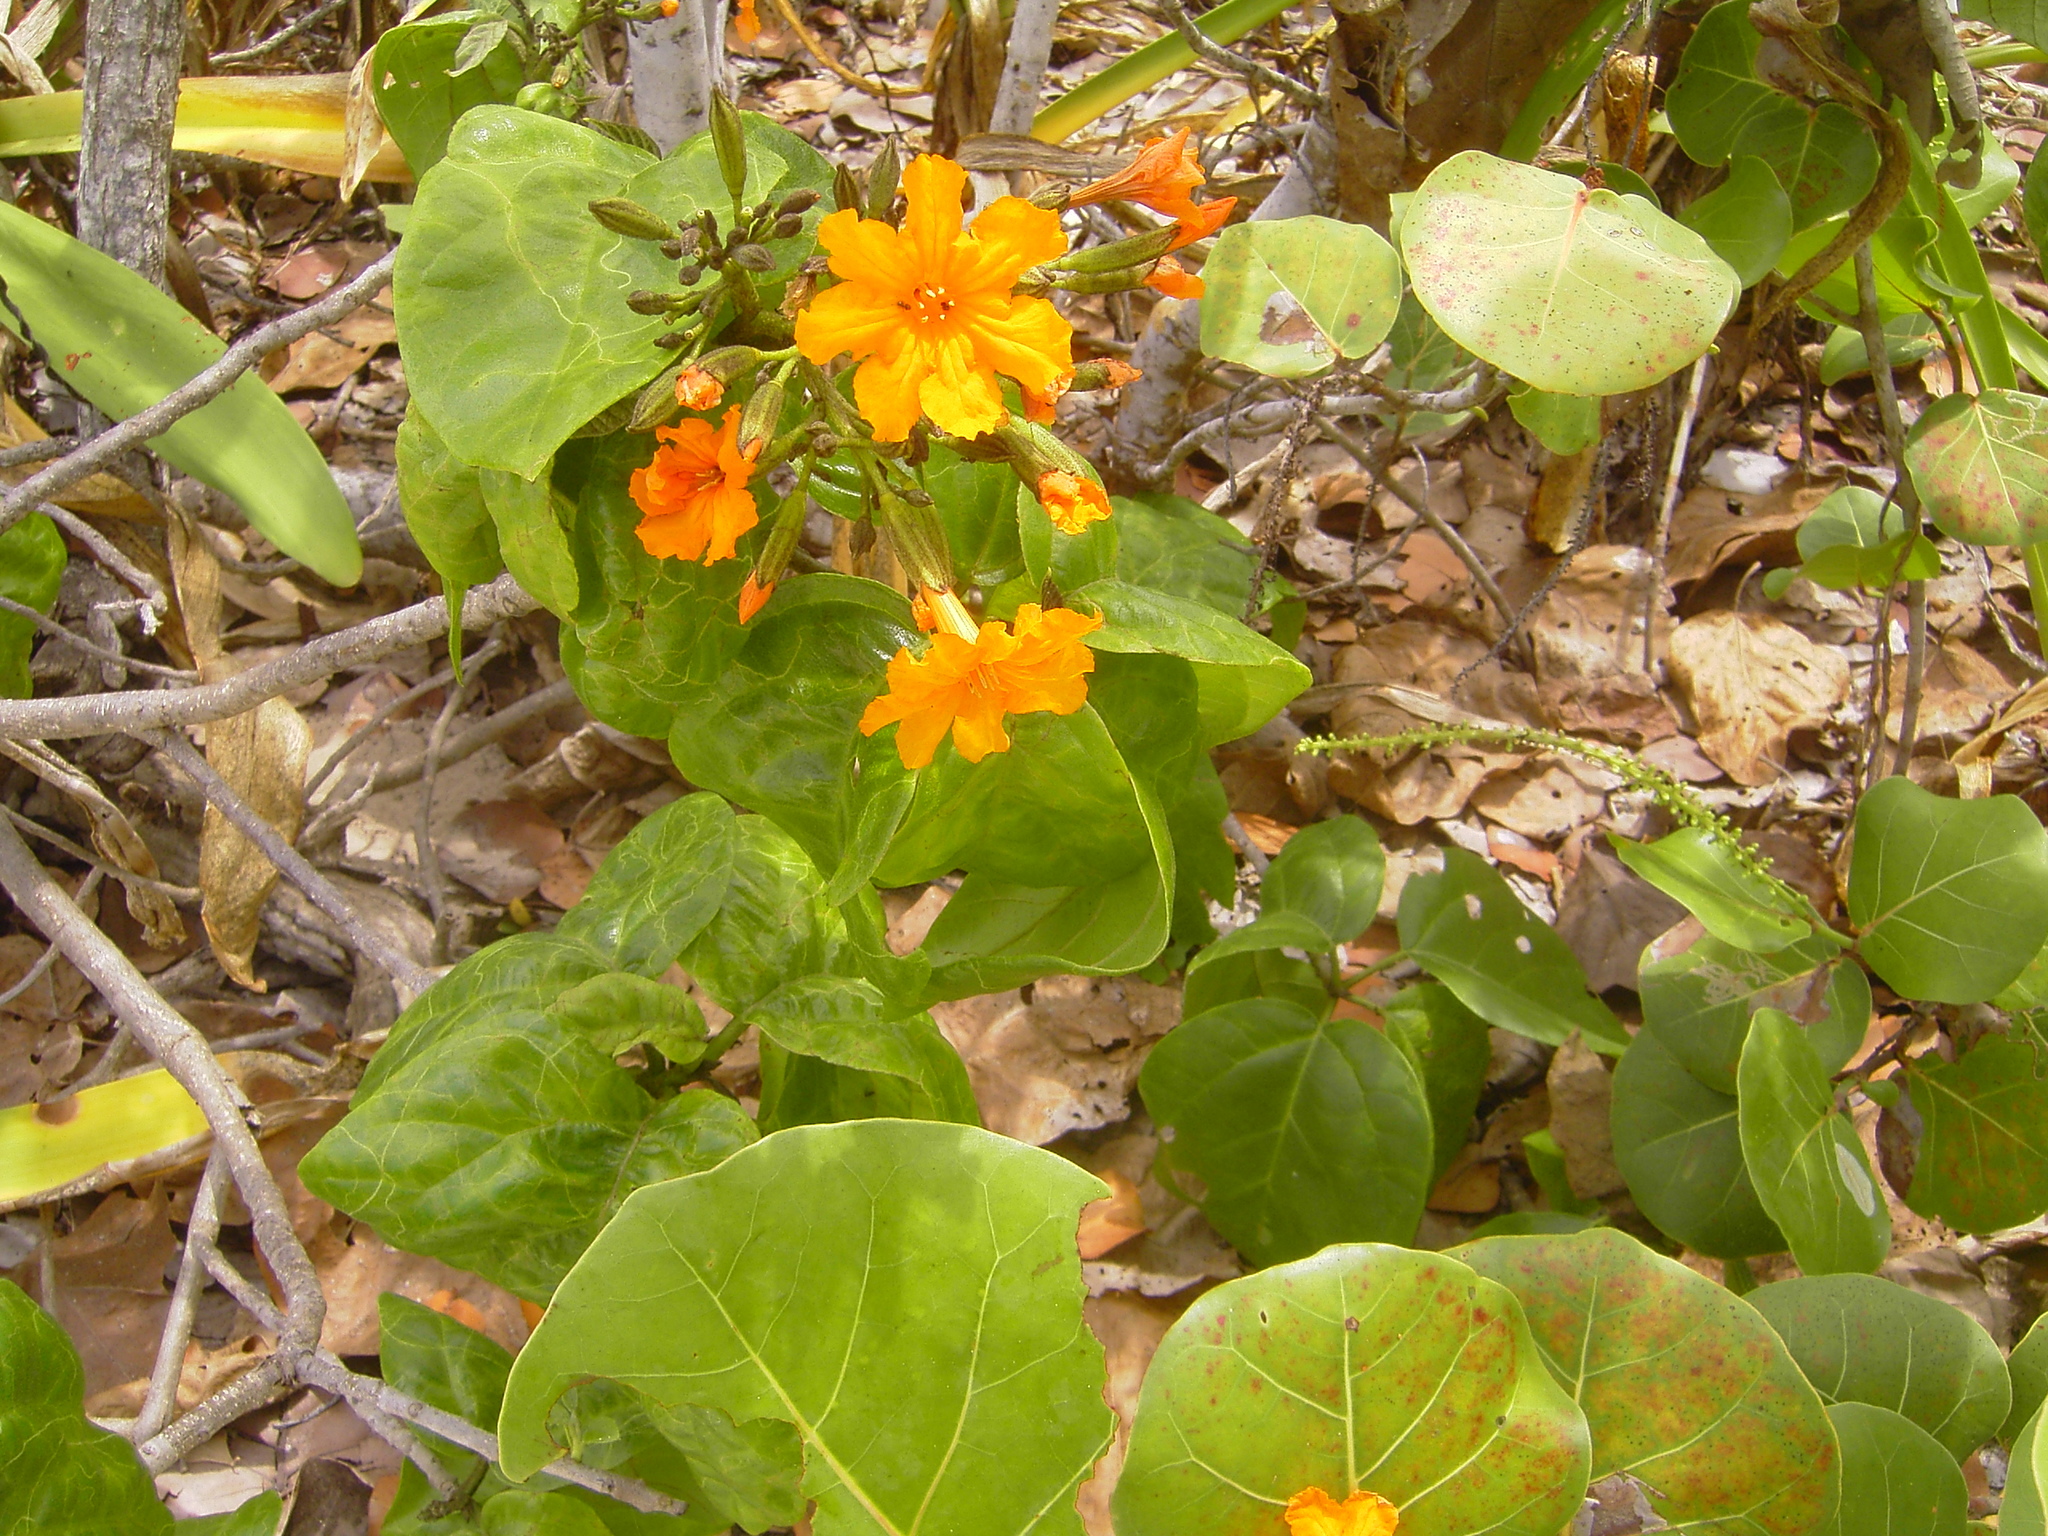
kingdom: Plantae
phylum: Tracheophyta
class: Magnoliopsida
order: Boraginales
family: Cordiaceae
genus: Cordia
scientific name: Cordia sebestena
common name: Largeleaf geigertree
